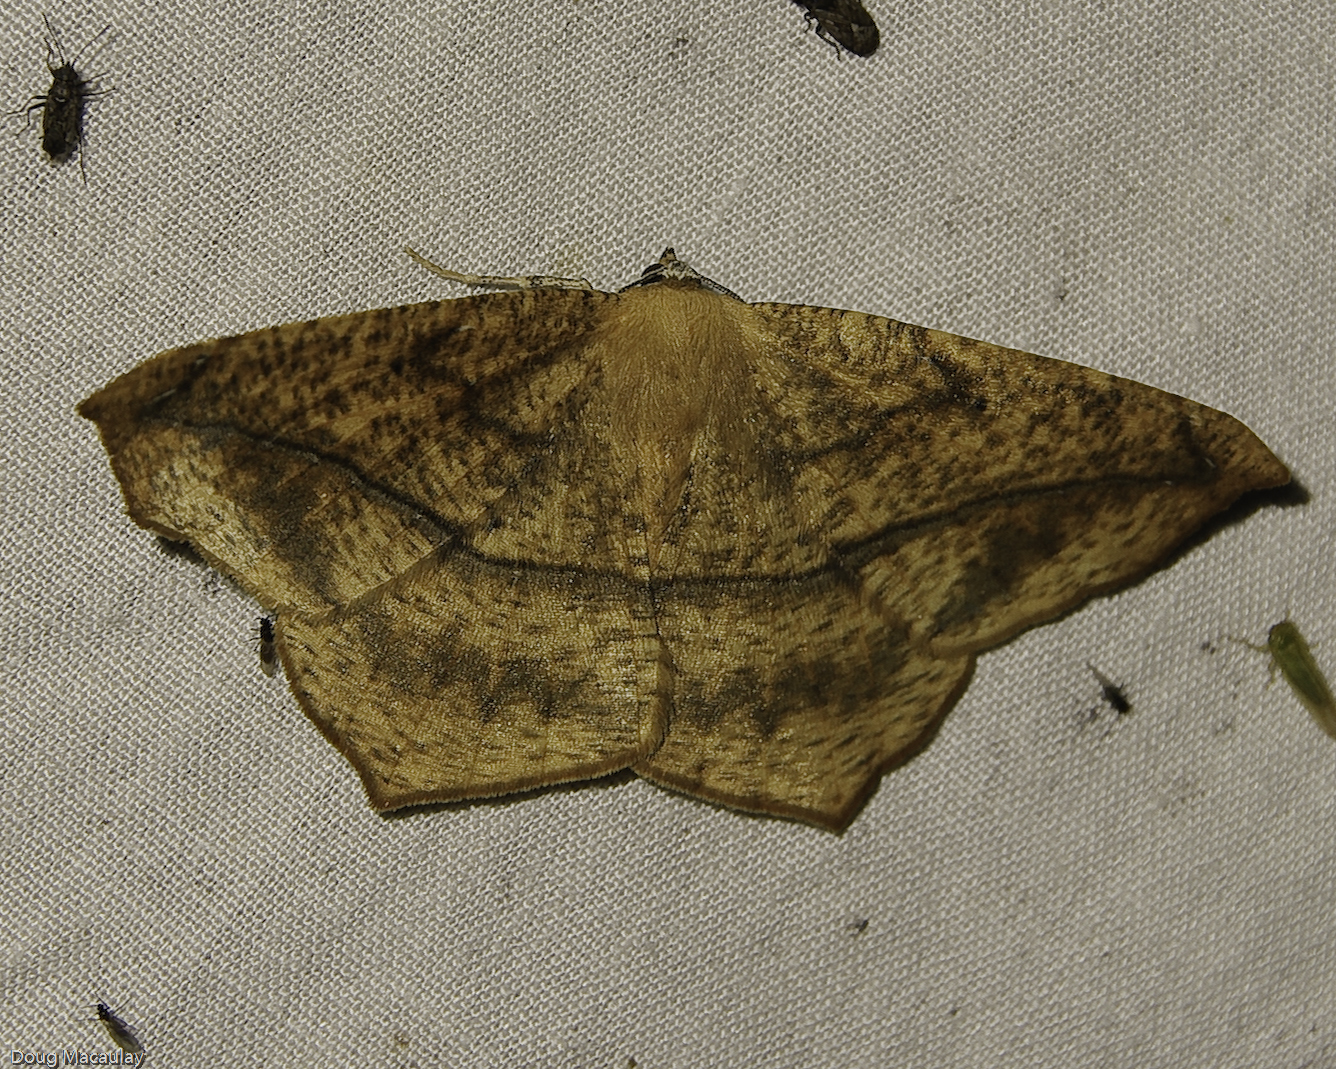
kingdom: Animalia
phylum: Arthropoda
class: Insecta
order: Lepidoptera
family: Geometridae
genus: Prochoerodes
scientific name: Prochoerodes lineola
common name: Large maple spanworm
